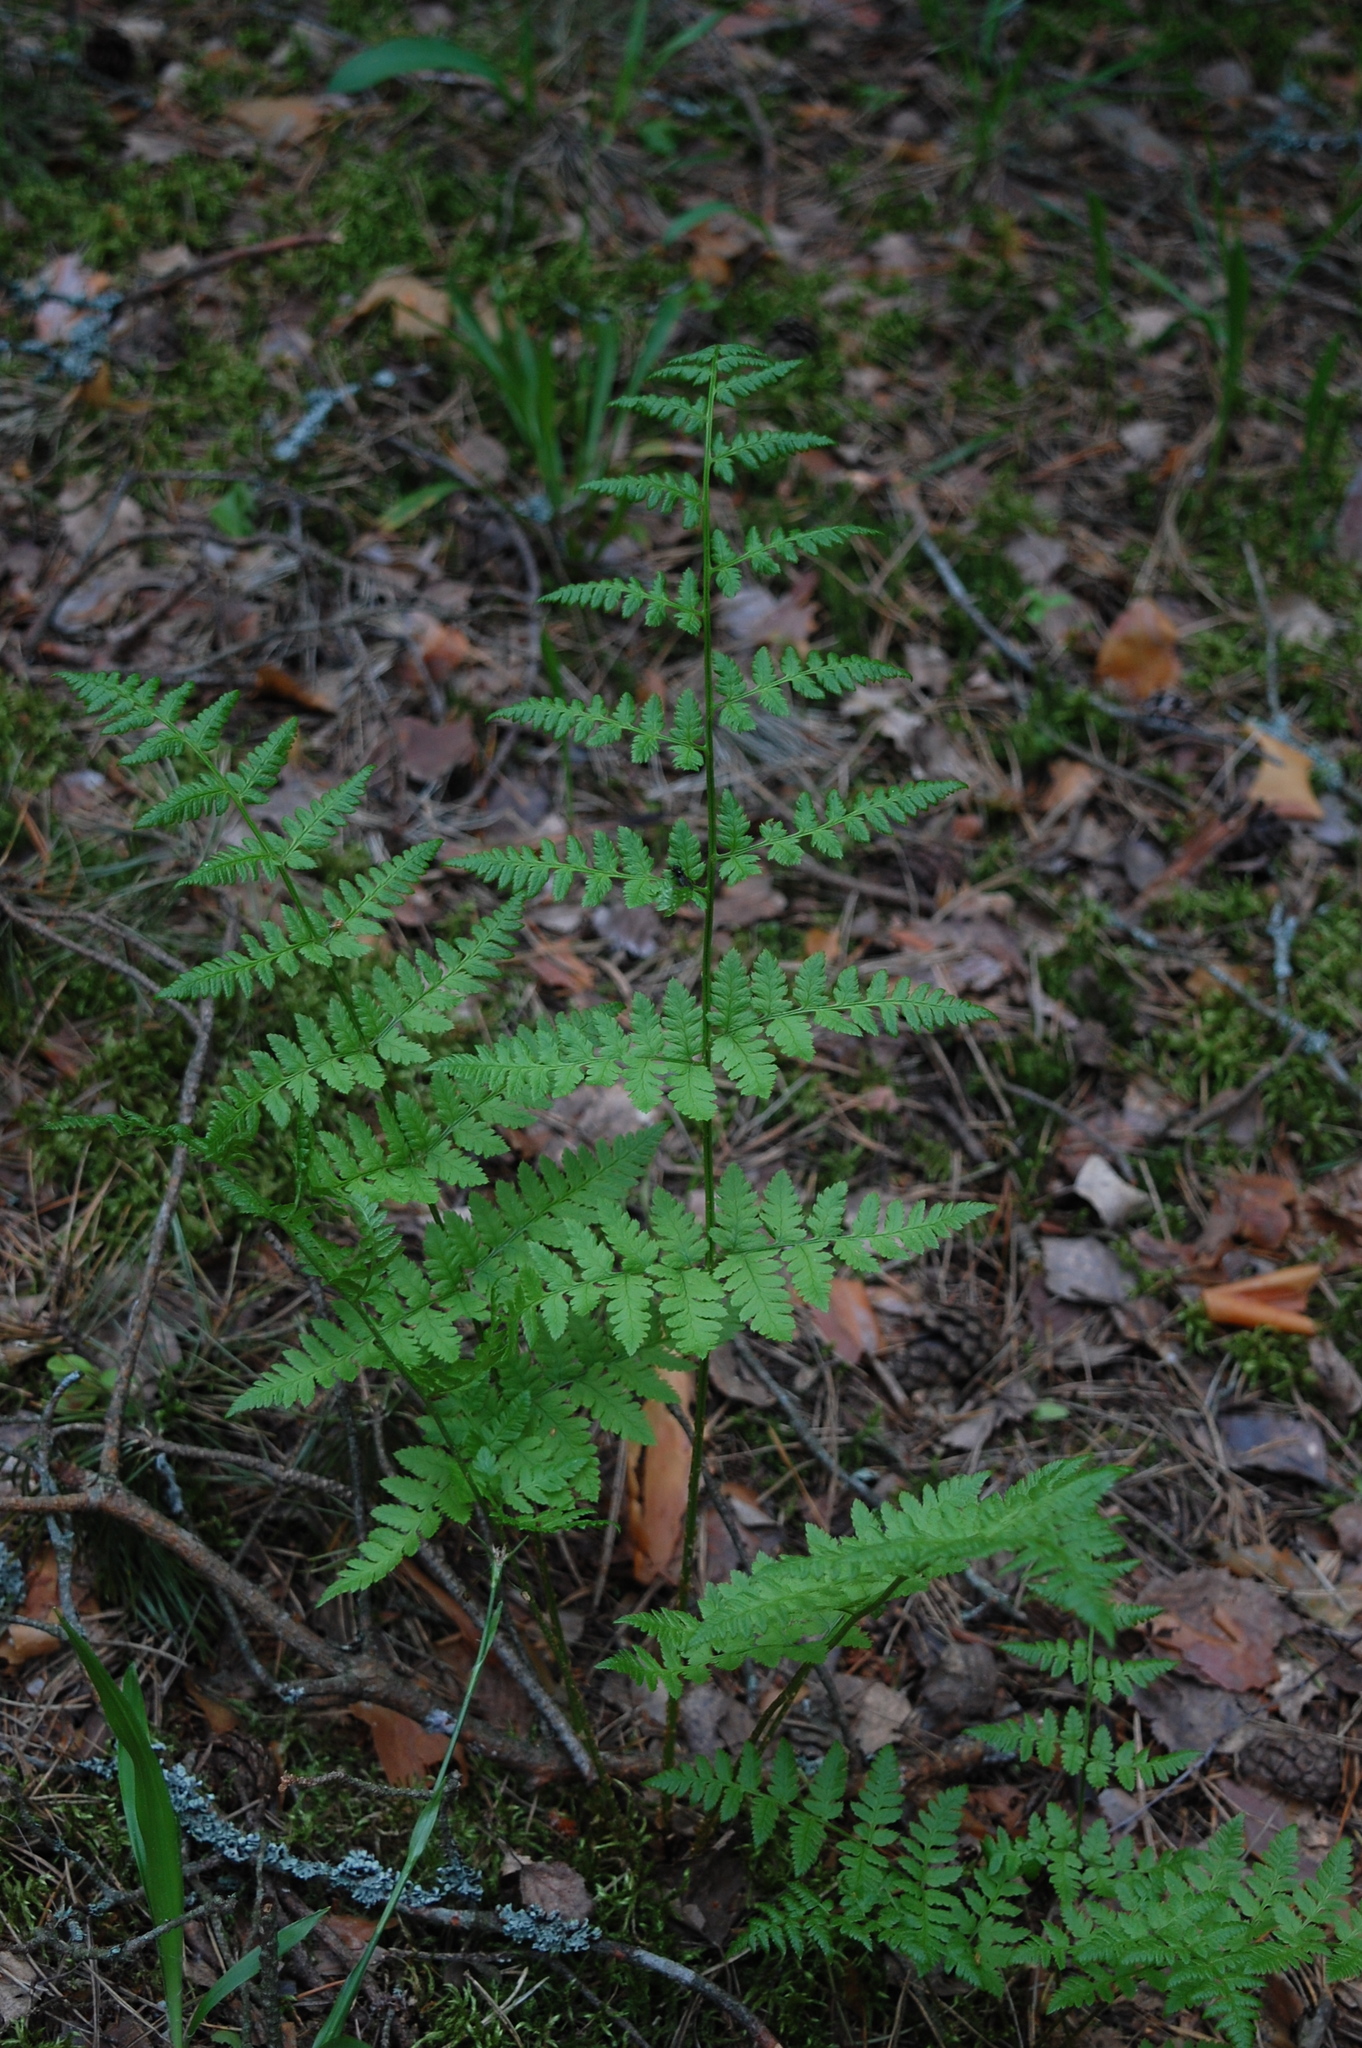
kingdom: Plantae
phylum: Tracheophyta
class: Polypodiopsida
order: Polypodiales
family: Dryopteridaceae
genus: Dryopteris
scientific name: Dryopteris carthusiana
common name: Narrow buckler-fern
